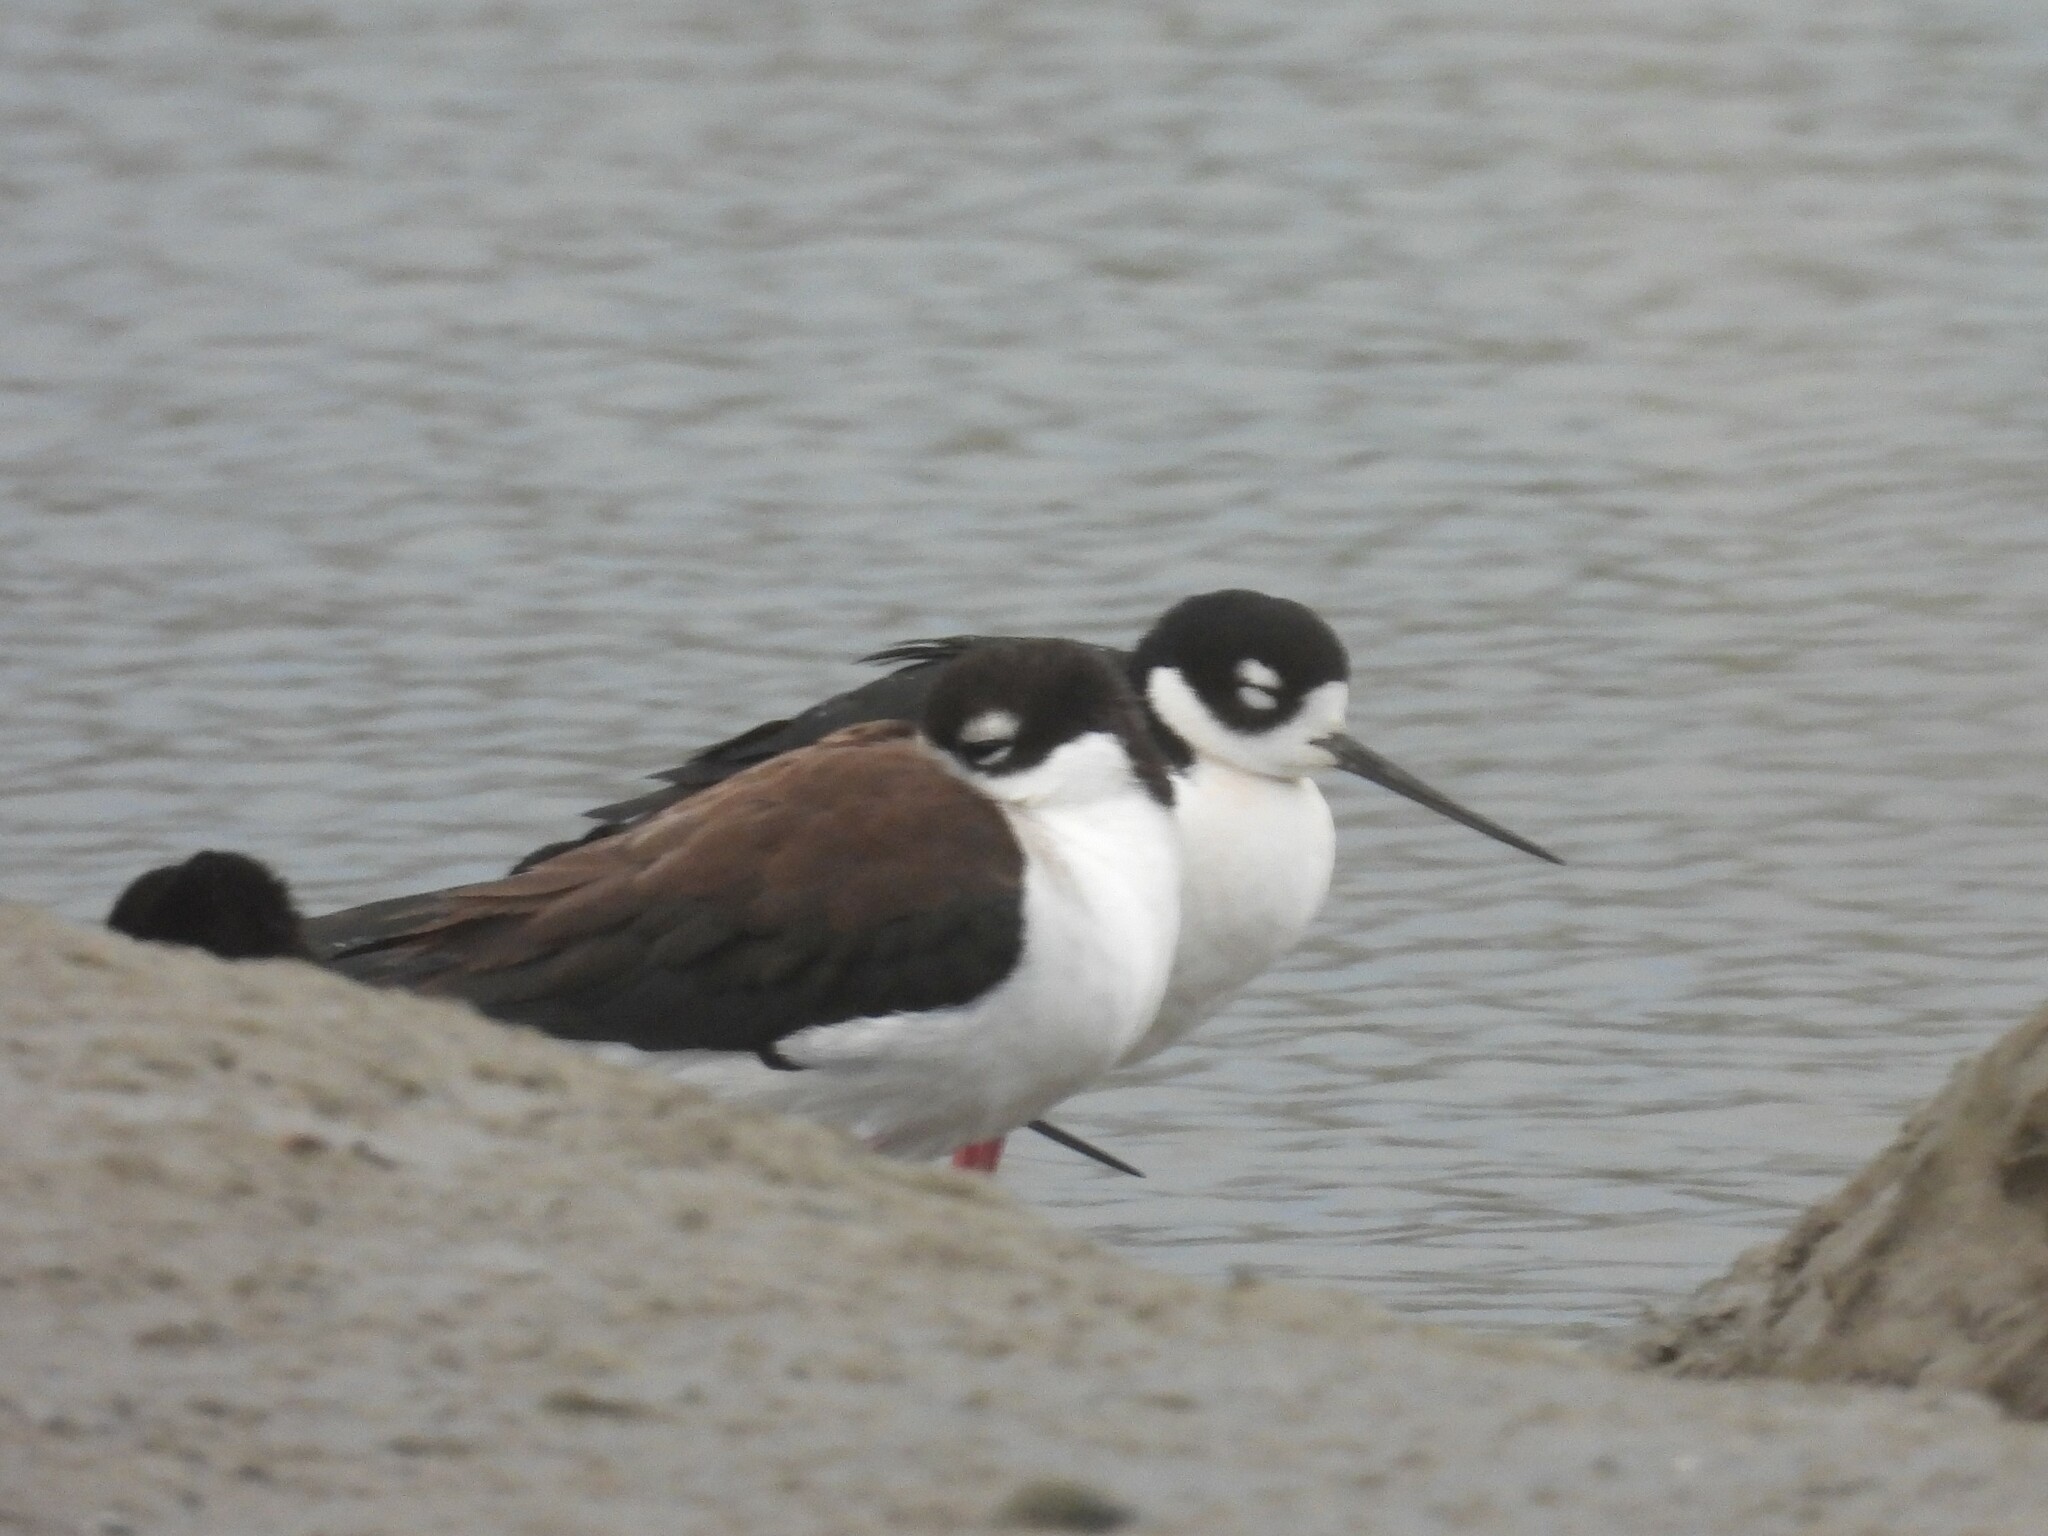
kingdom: Animalia
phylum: Chordata
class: Aves
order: Charadriiformes
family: Recurvirostridae
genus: Himantopus
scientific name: Himantopus mexicanus
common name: Black-necked stilt
